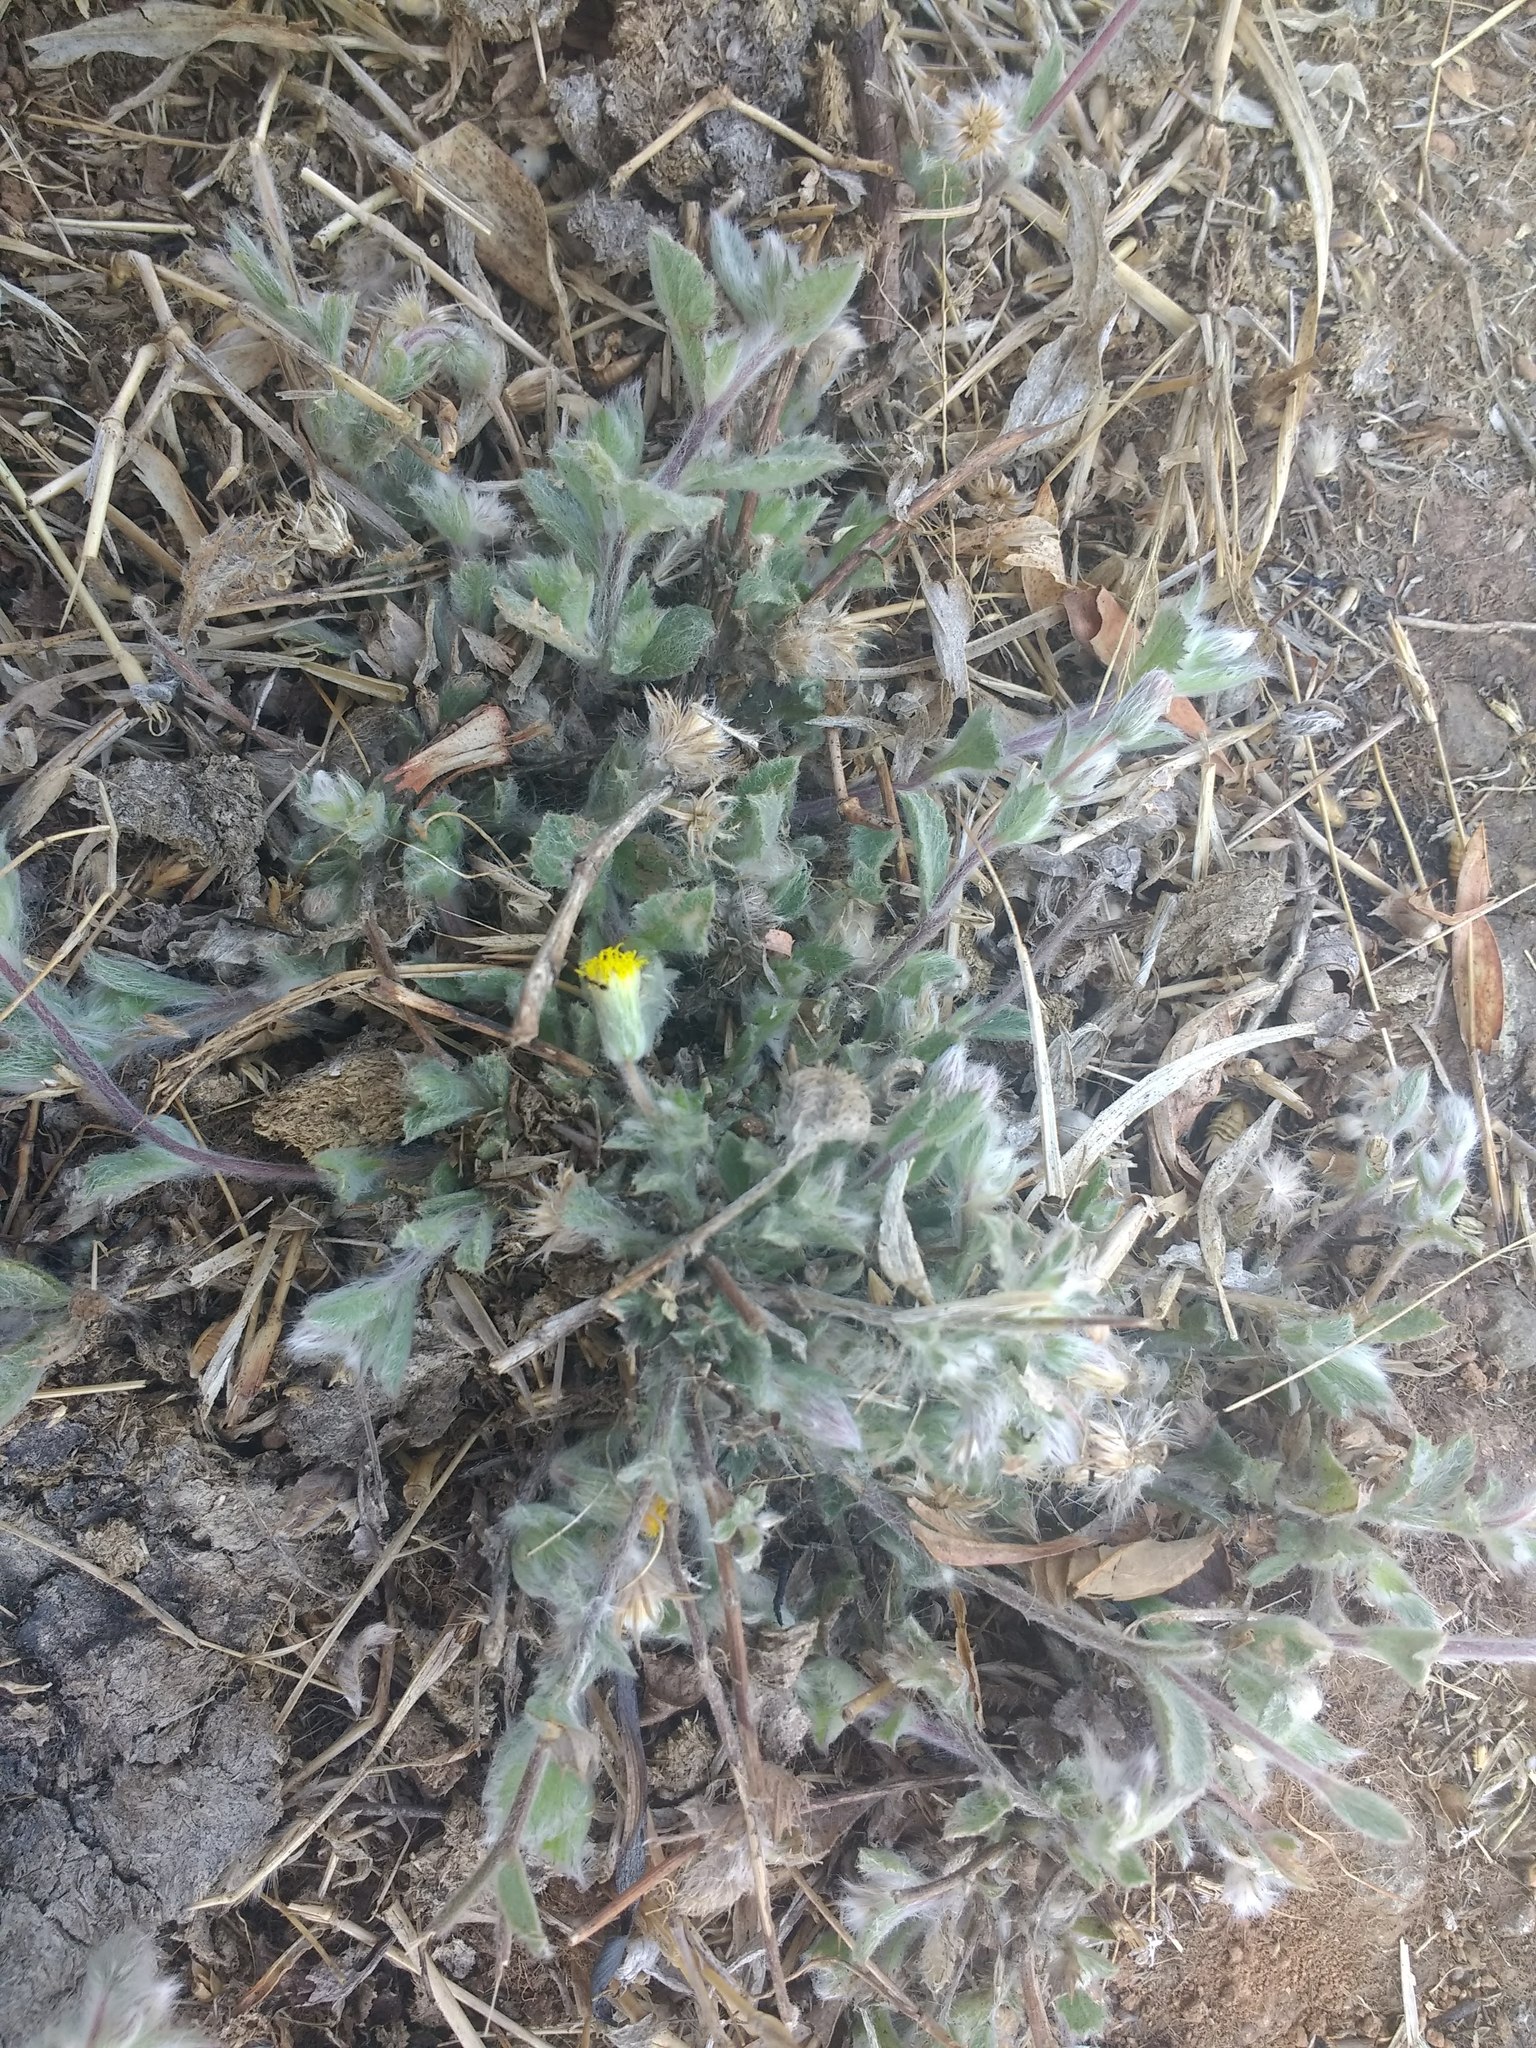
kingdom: Plantae
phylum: Tracheophyta
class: Magnoliopsida
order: Asterales
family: Asteraceae
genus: Blumea
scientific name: Blumea malcolmii
